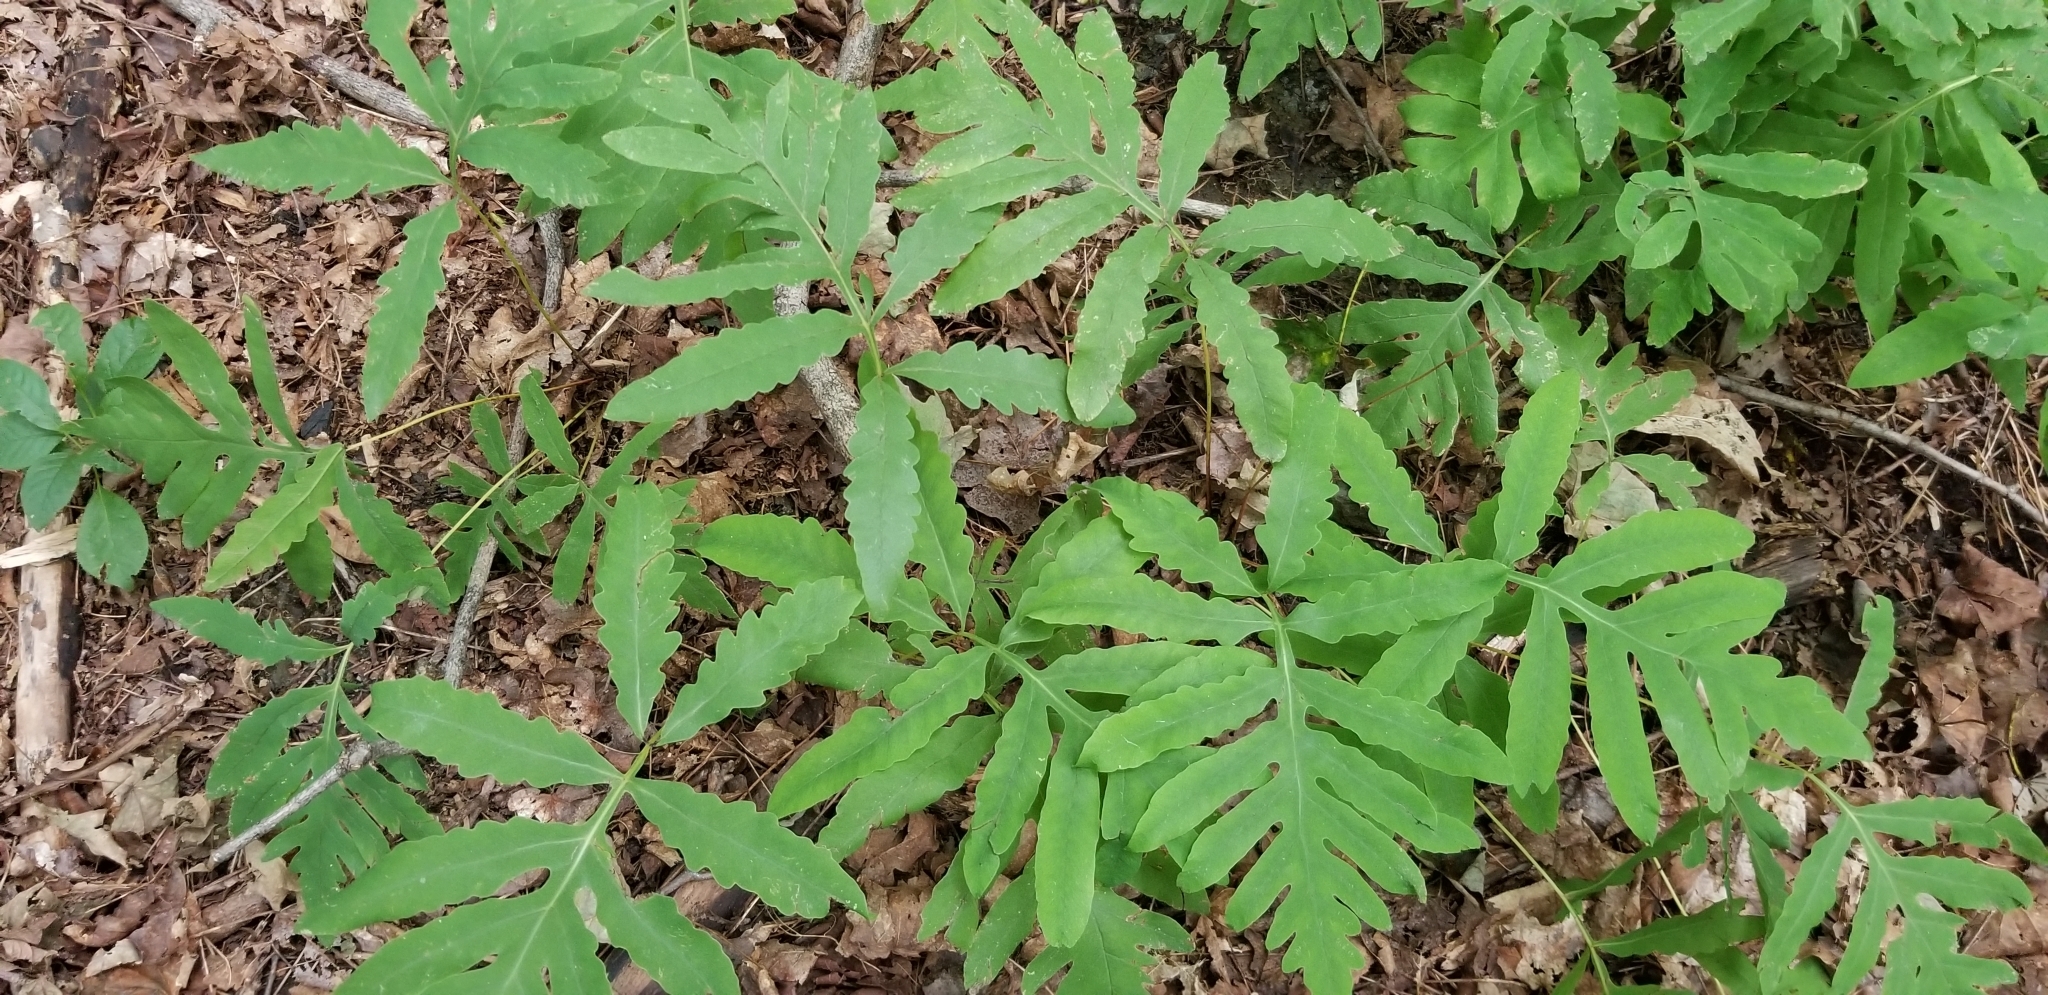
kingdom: Plantae
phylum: Tracheophyta
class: Polypodiopsida
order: Polypodiales
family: Onocleaceae
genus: Onoclea
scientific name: Onoclea sensibilis
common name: Sensitive fern
